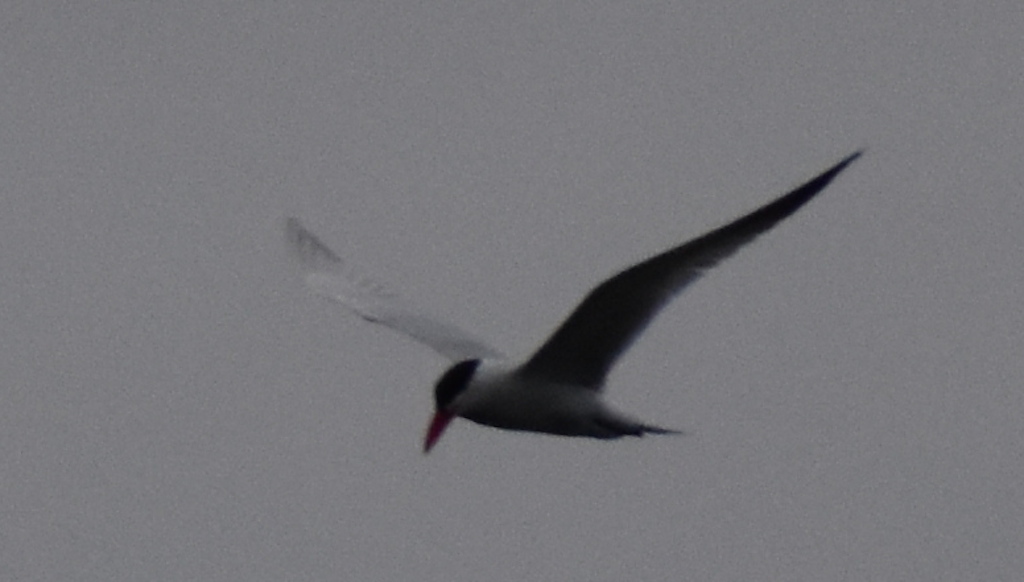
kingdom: Animalia
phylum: Chordata
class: Aves
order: Charadriiformes
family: Laridae
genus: Hydroprogne
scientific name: Hydroprogne caspia
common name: Caspian tern
